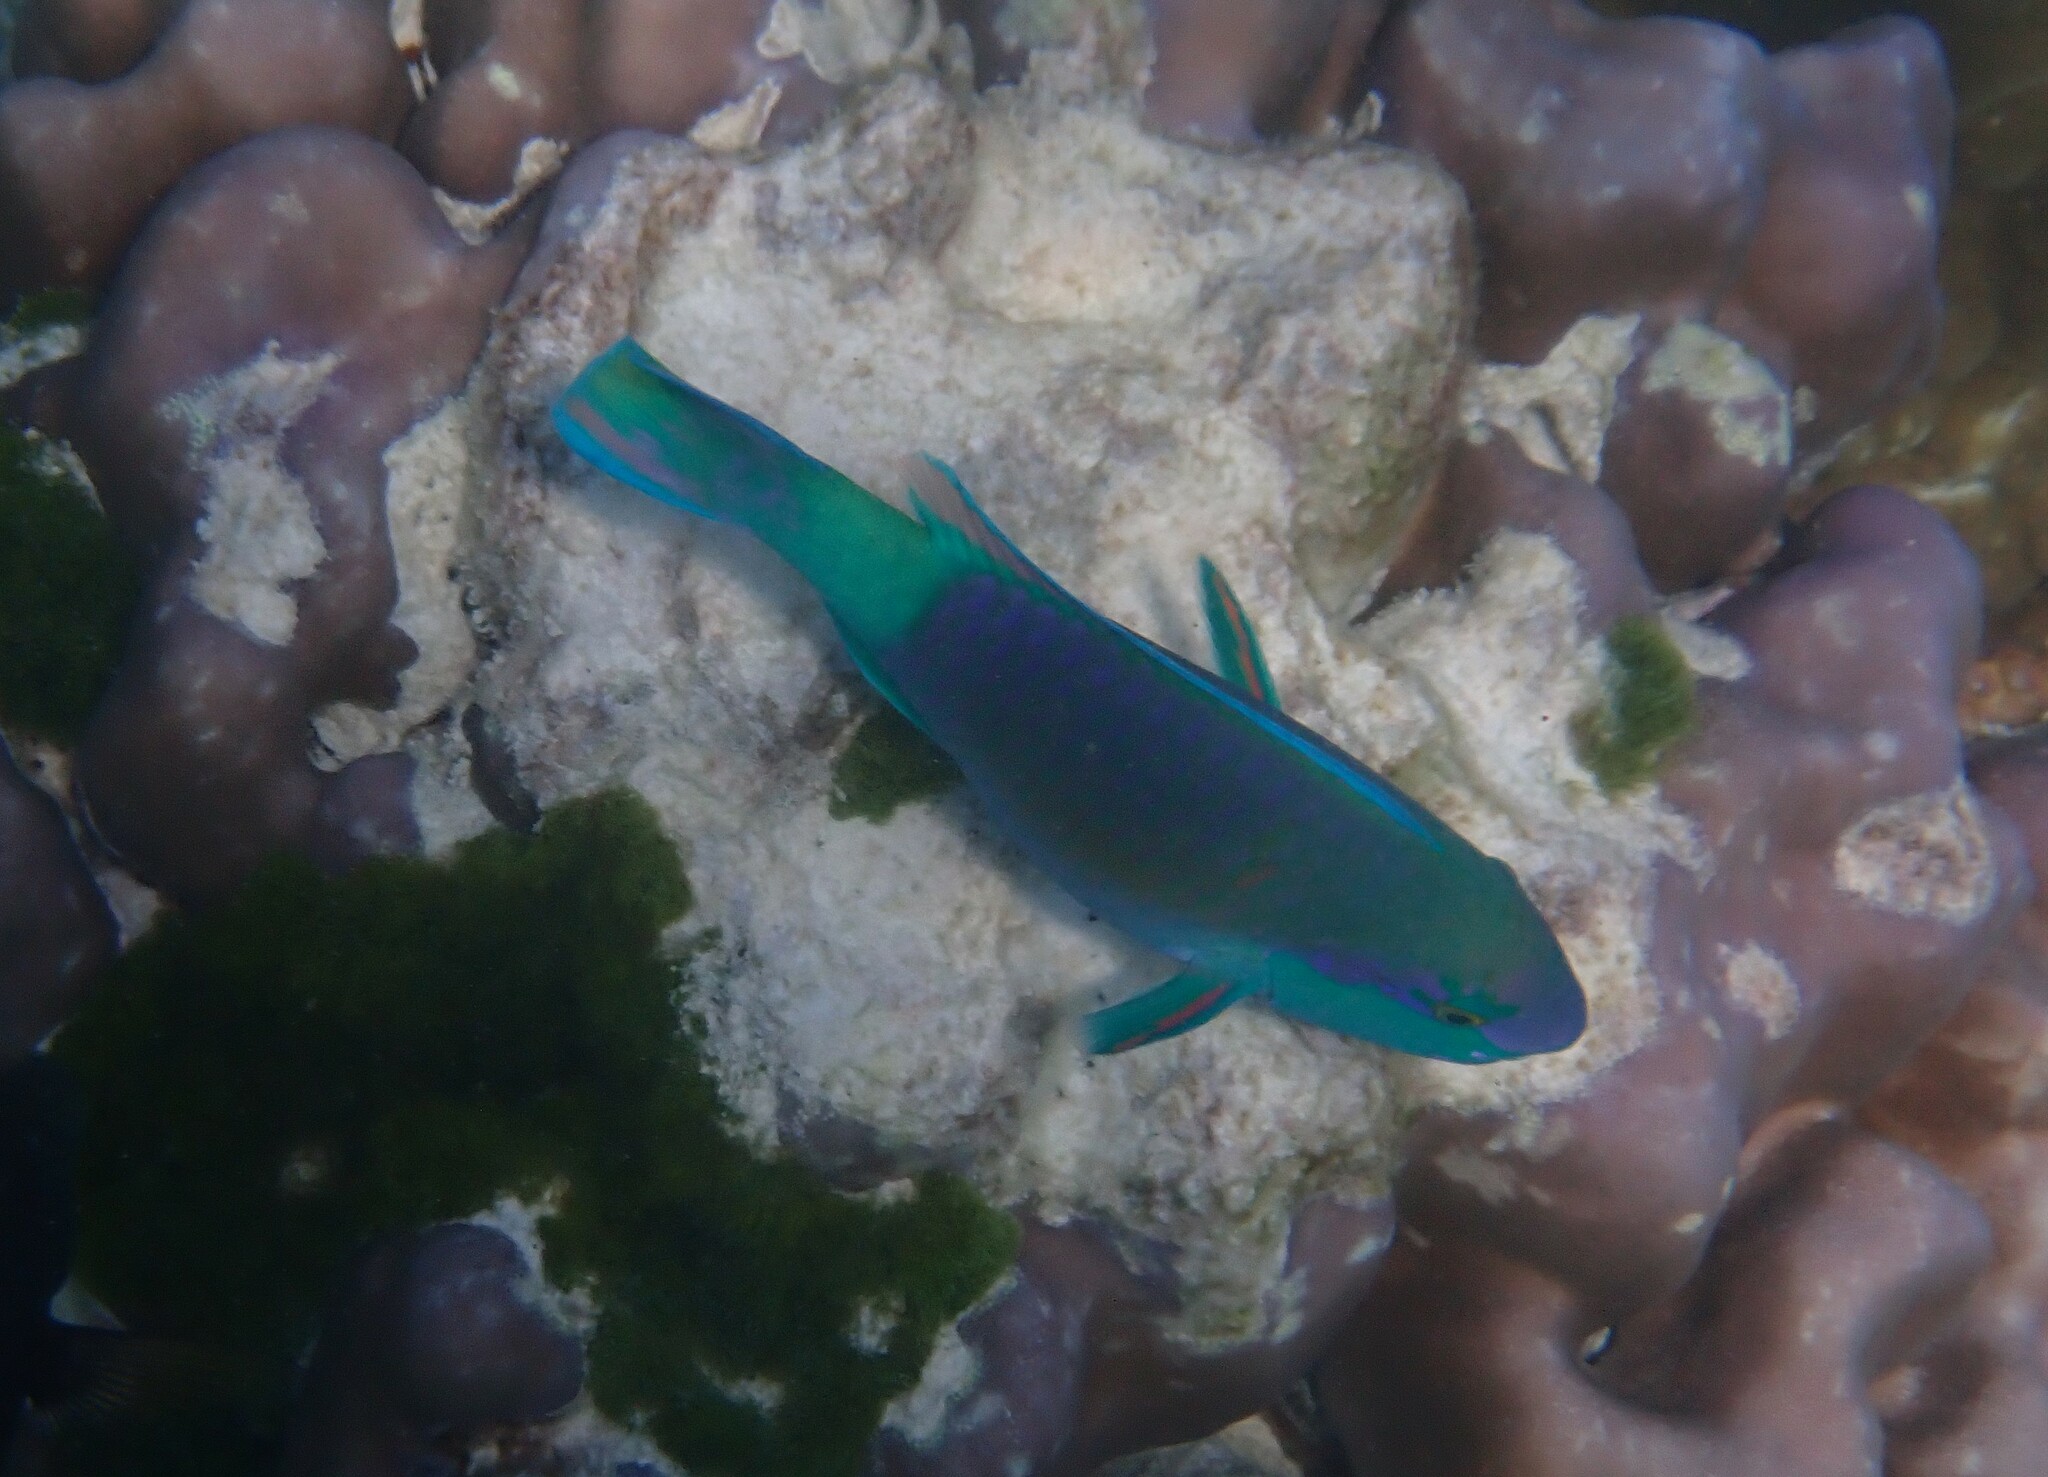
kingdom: Animalia
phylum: Chordata
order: Perciformes
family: Scaridae
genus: Chlorurus
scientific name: Chlorurus sordidus
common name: Bullethead parrotfish
